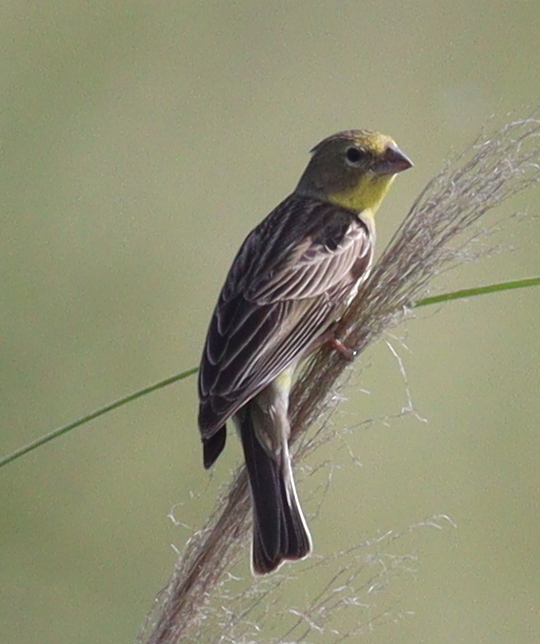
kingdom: Animalia
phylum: Chordata
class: Aves
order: Passeriformes
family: Thraupidae
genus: Sicalis
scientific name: Sicalis luteola
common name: Grassland yellow-finch
